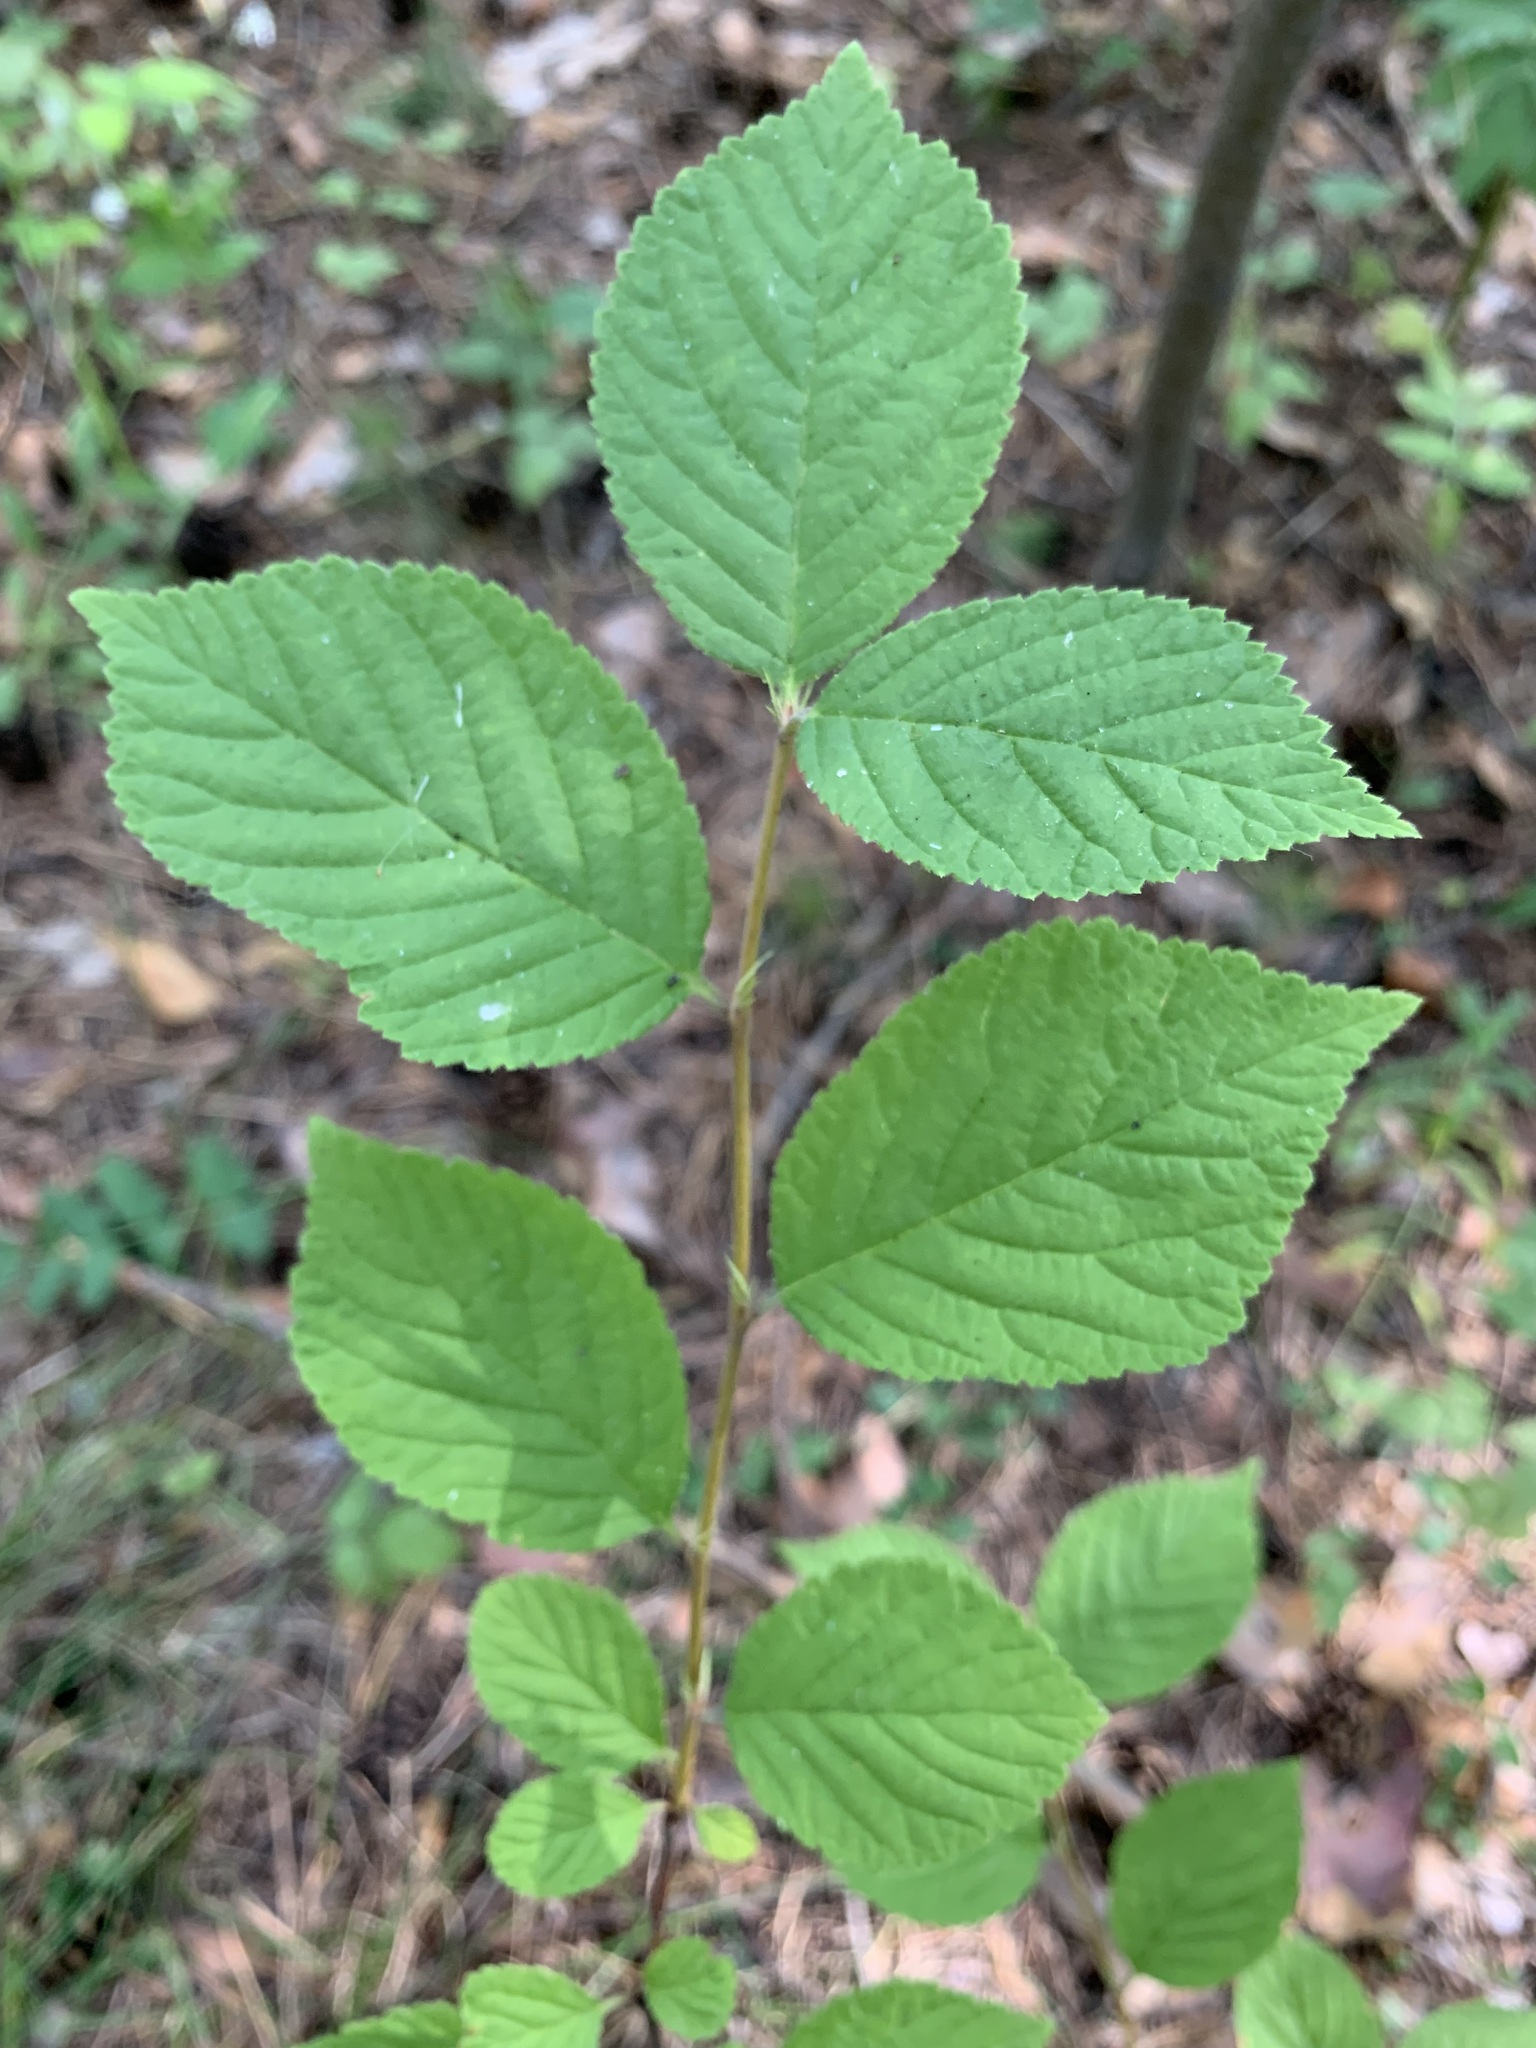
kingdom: Plantae
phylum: Tracheophyta
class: Magnoliopsida
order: Rosales
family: Rosaceae
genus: Prunus
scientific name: Prunus tomentosa
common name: Nanking cherry
